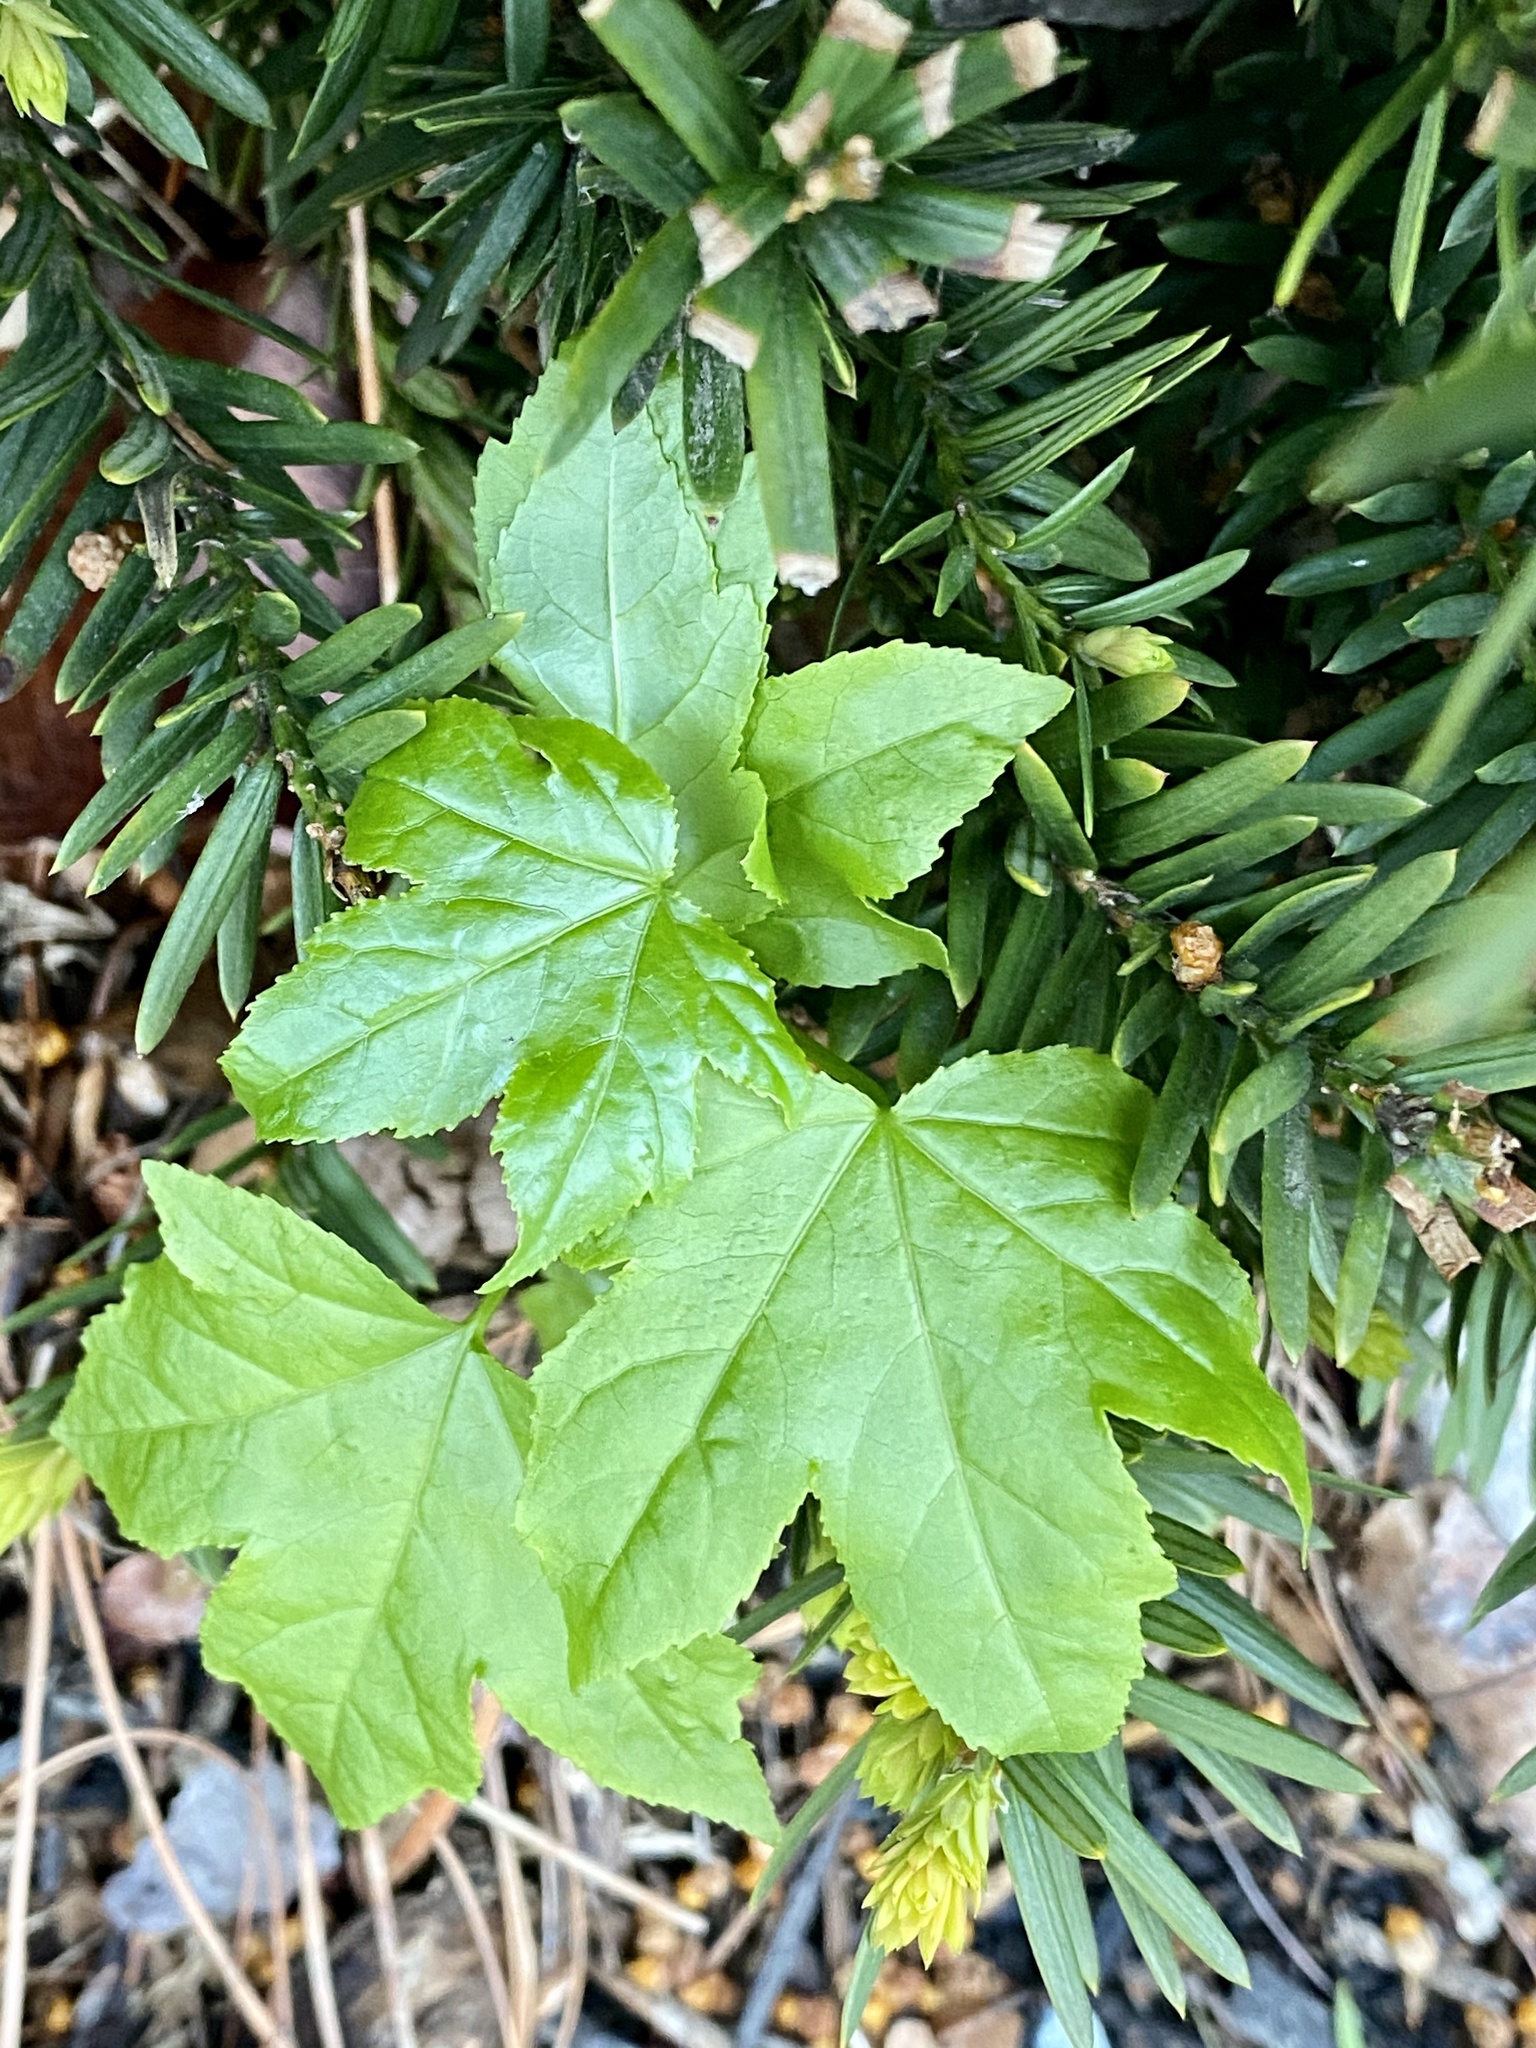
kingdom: Plantae
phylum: Tracheophyta
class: Magnoliopsida
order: Saxifragales
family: Altingiaceae
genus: Liquidambar
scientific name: Liquidambar styraciflua
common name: Sweet gum
